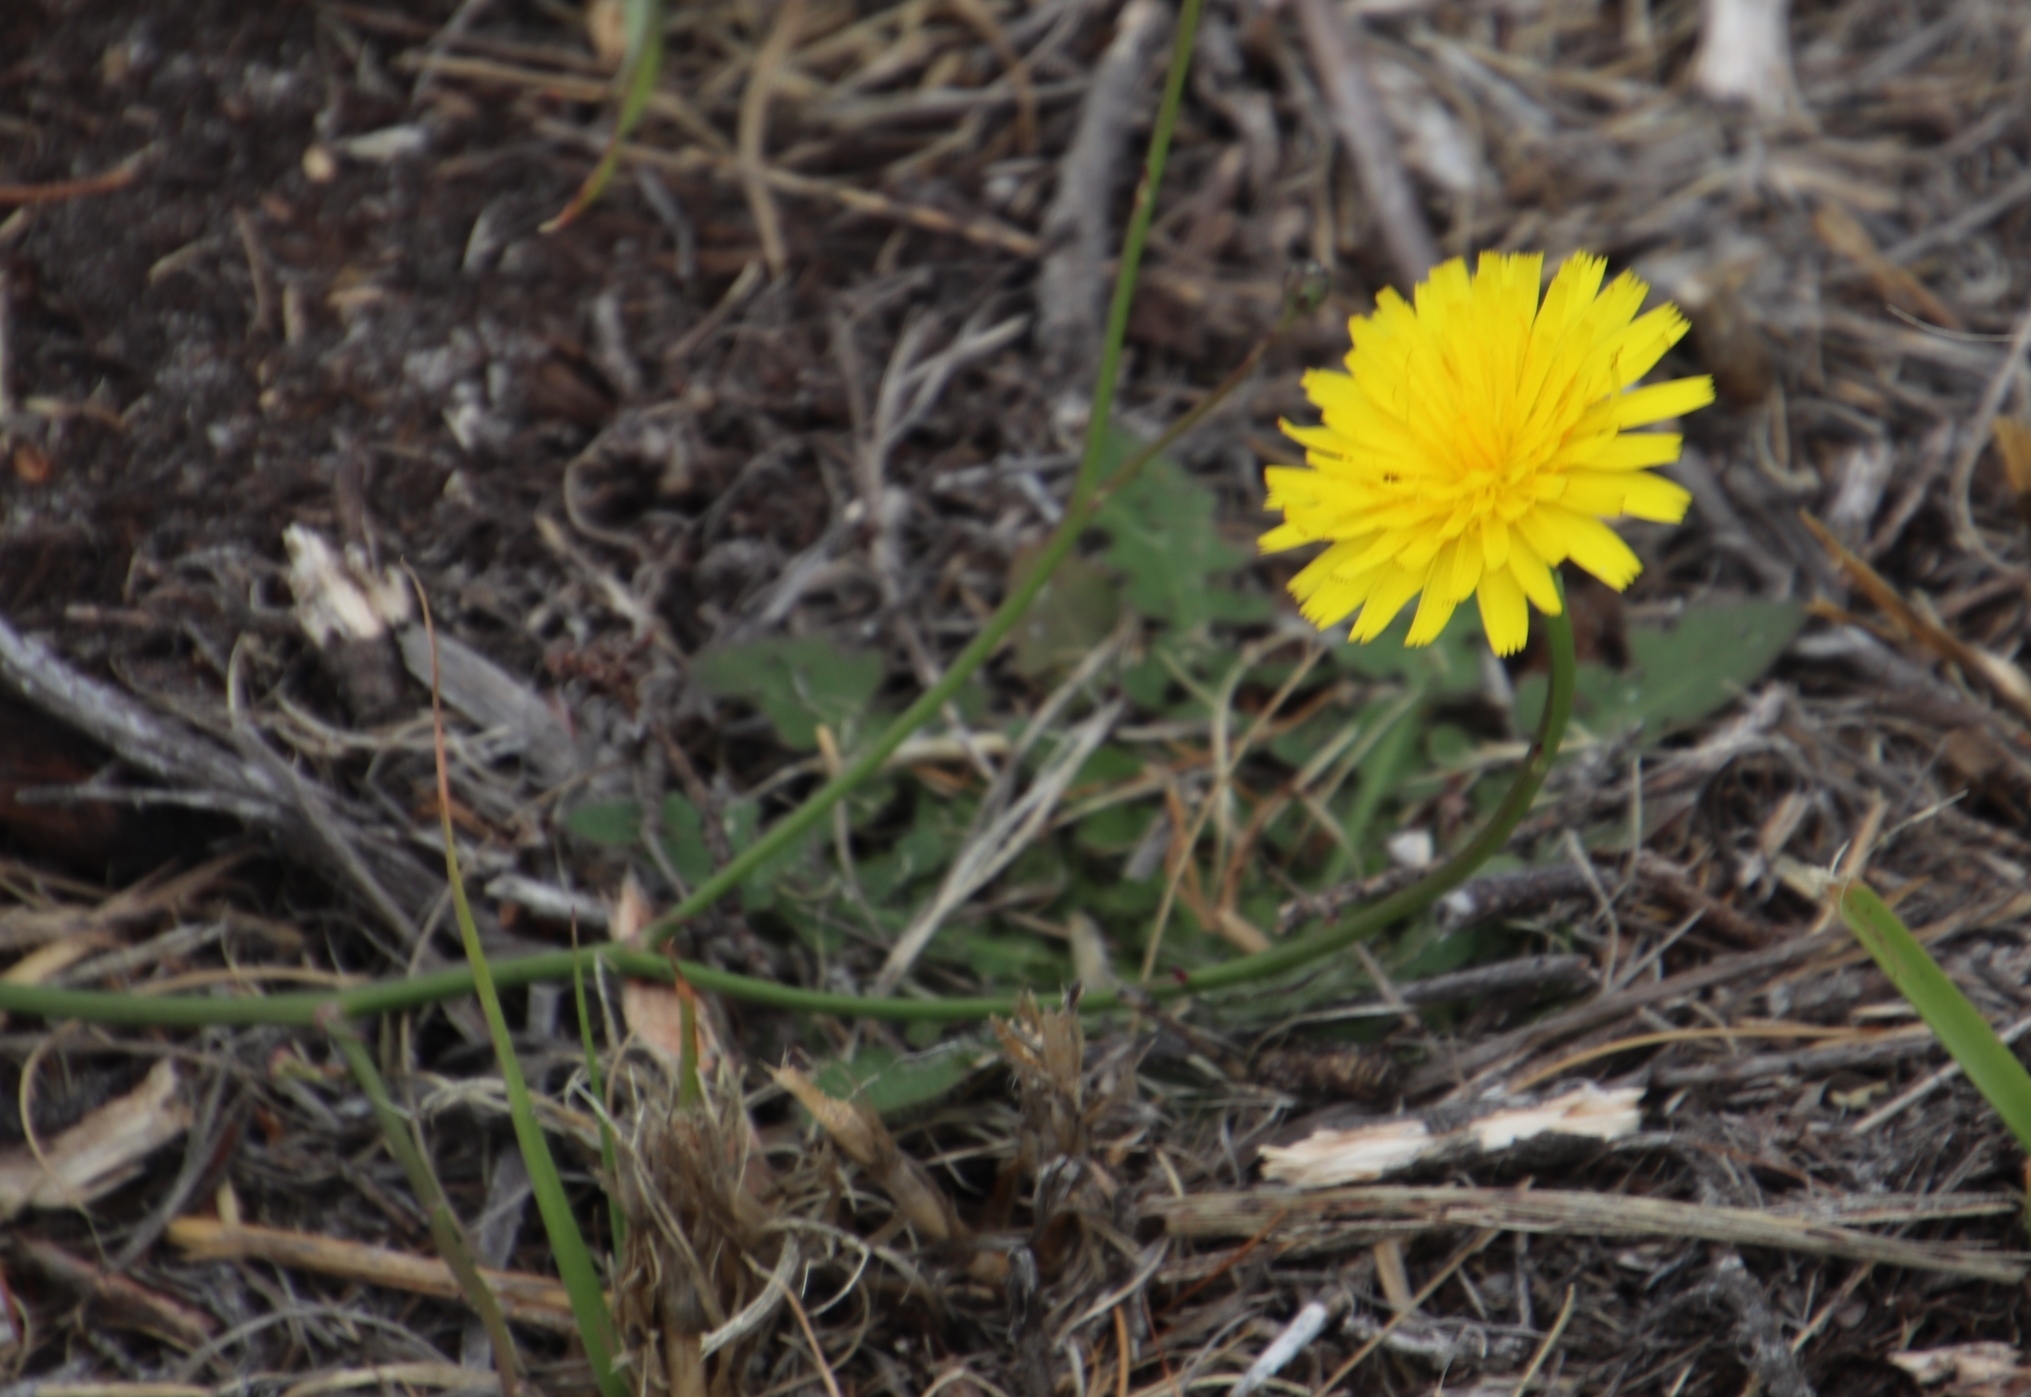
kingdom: Plantae
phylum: Tracheophyta
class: Magnoliopsida
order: Asterales
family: Asteraceae
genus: Hypochaeris
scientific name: Hypochaeris radicata
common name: Flatweed
